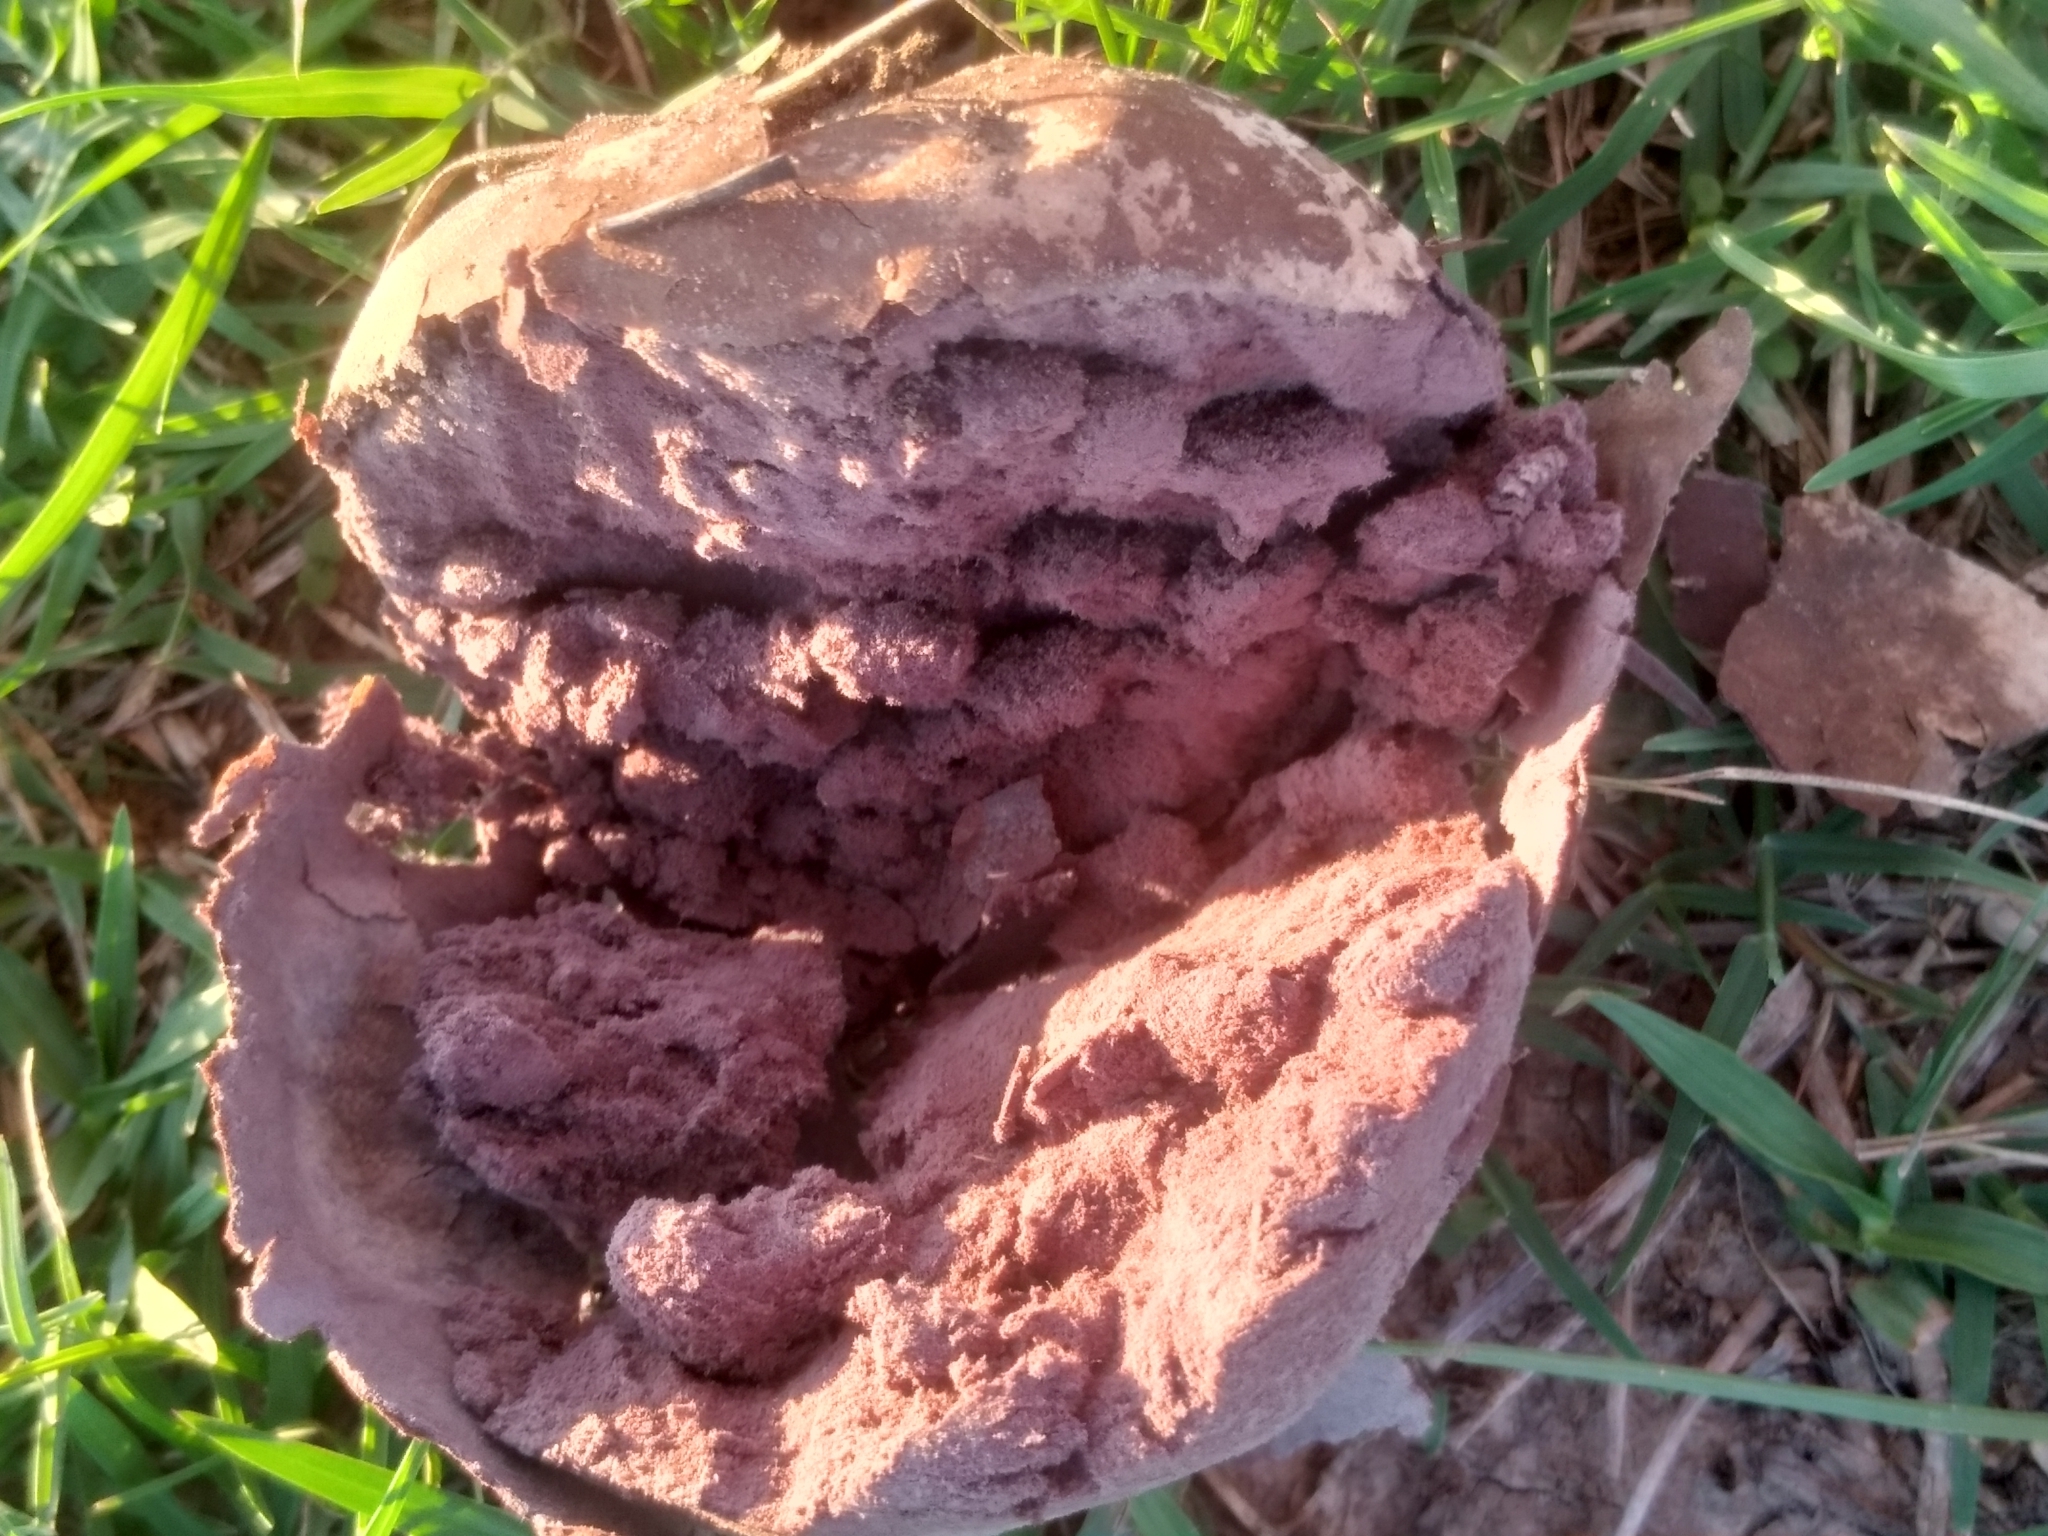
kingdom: Fungi
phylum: Basidiomycota
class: Agaricomycetes
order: Agaricales
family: Lycoperdaceae
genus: Calvatia
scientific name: Calvatia cyathiformis
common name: Purple-spored puffball
